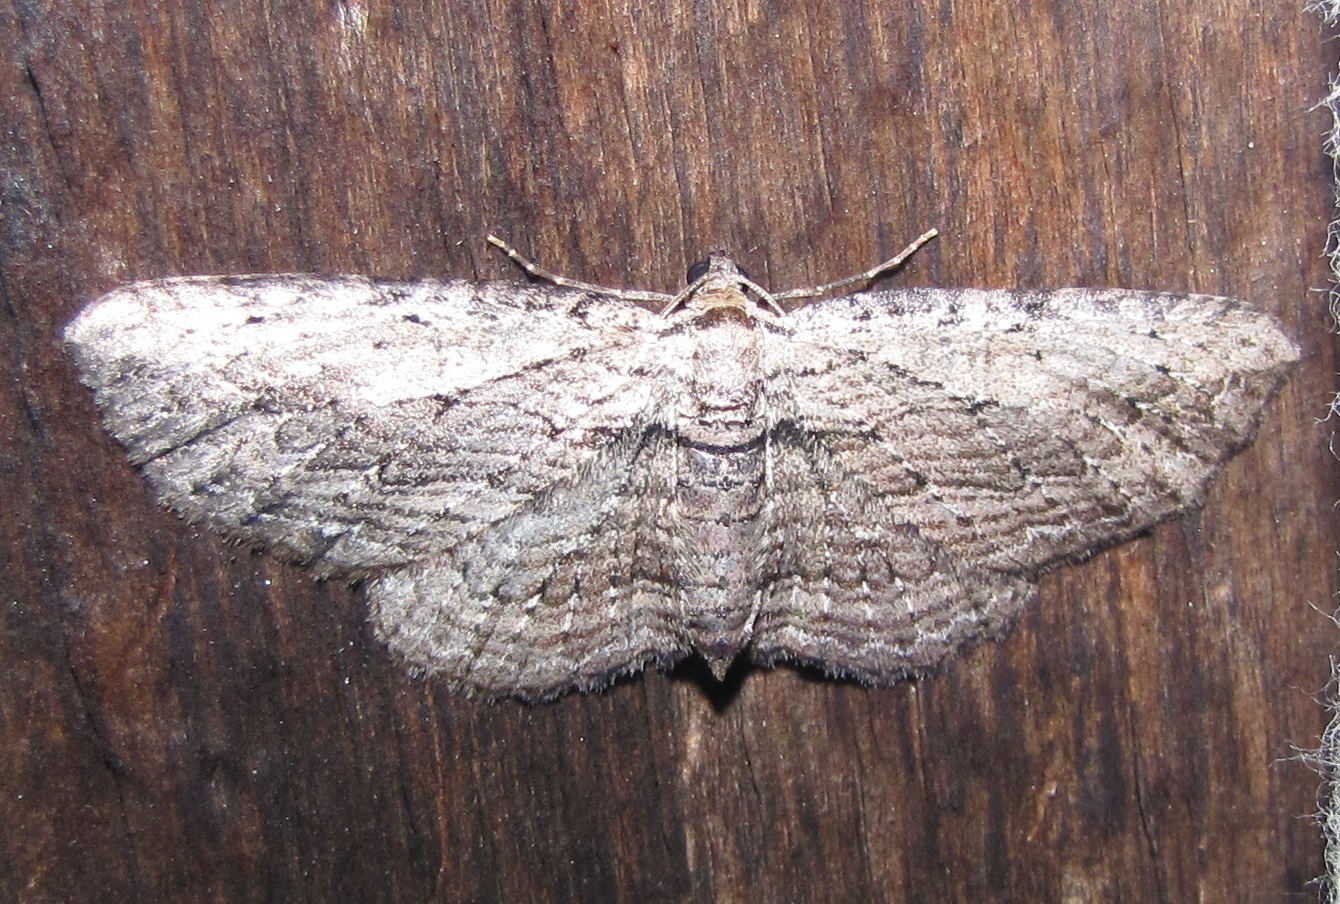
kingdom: Animalia
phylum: Arthropoda
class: Insecta
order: Lepidoptera
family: Geometridae
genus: Horisme
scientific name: Horisme intestinata
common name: Brown bark carpet
